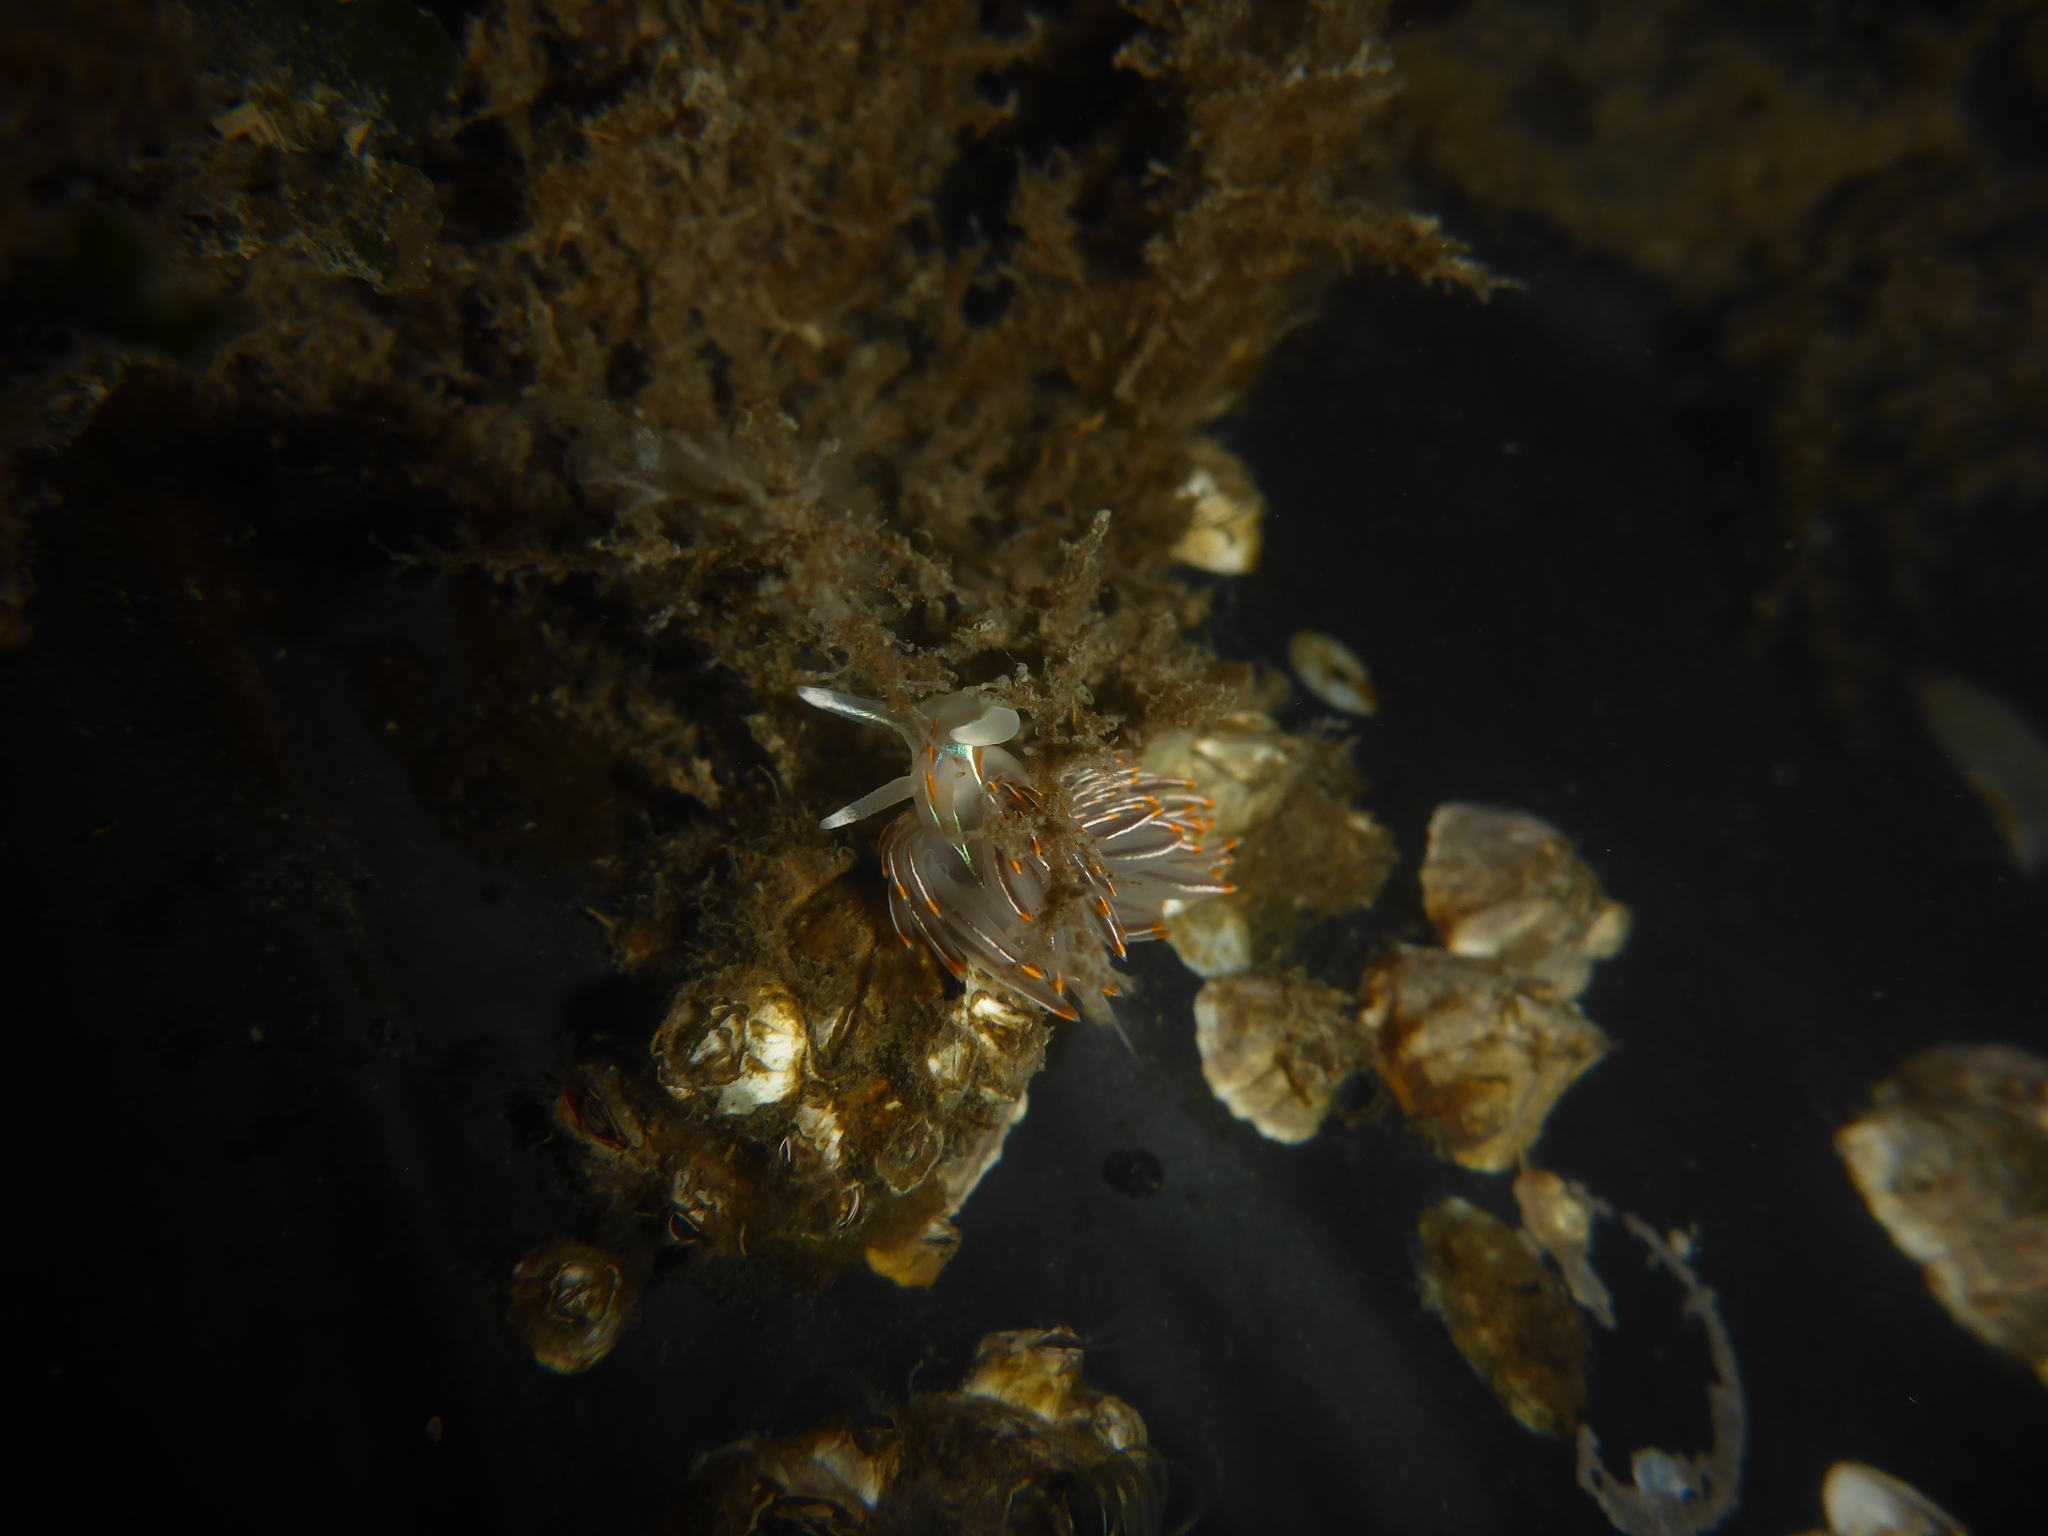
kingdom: Animalia
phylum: Mollusca
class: Gastropoda
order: Nudibranchia
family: Myrrhinidae
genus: Hermissenda
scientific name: Hermissenda crassicornis
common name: Hermissenda
